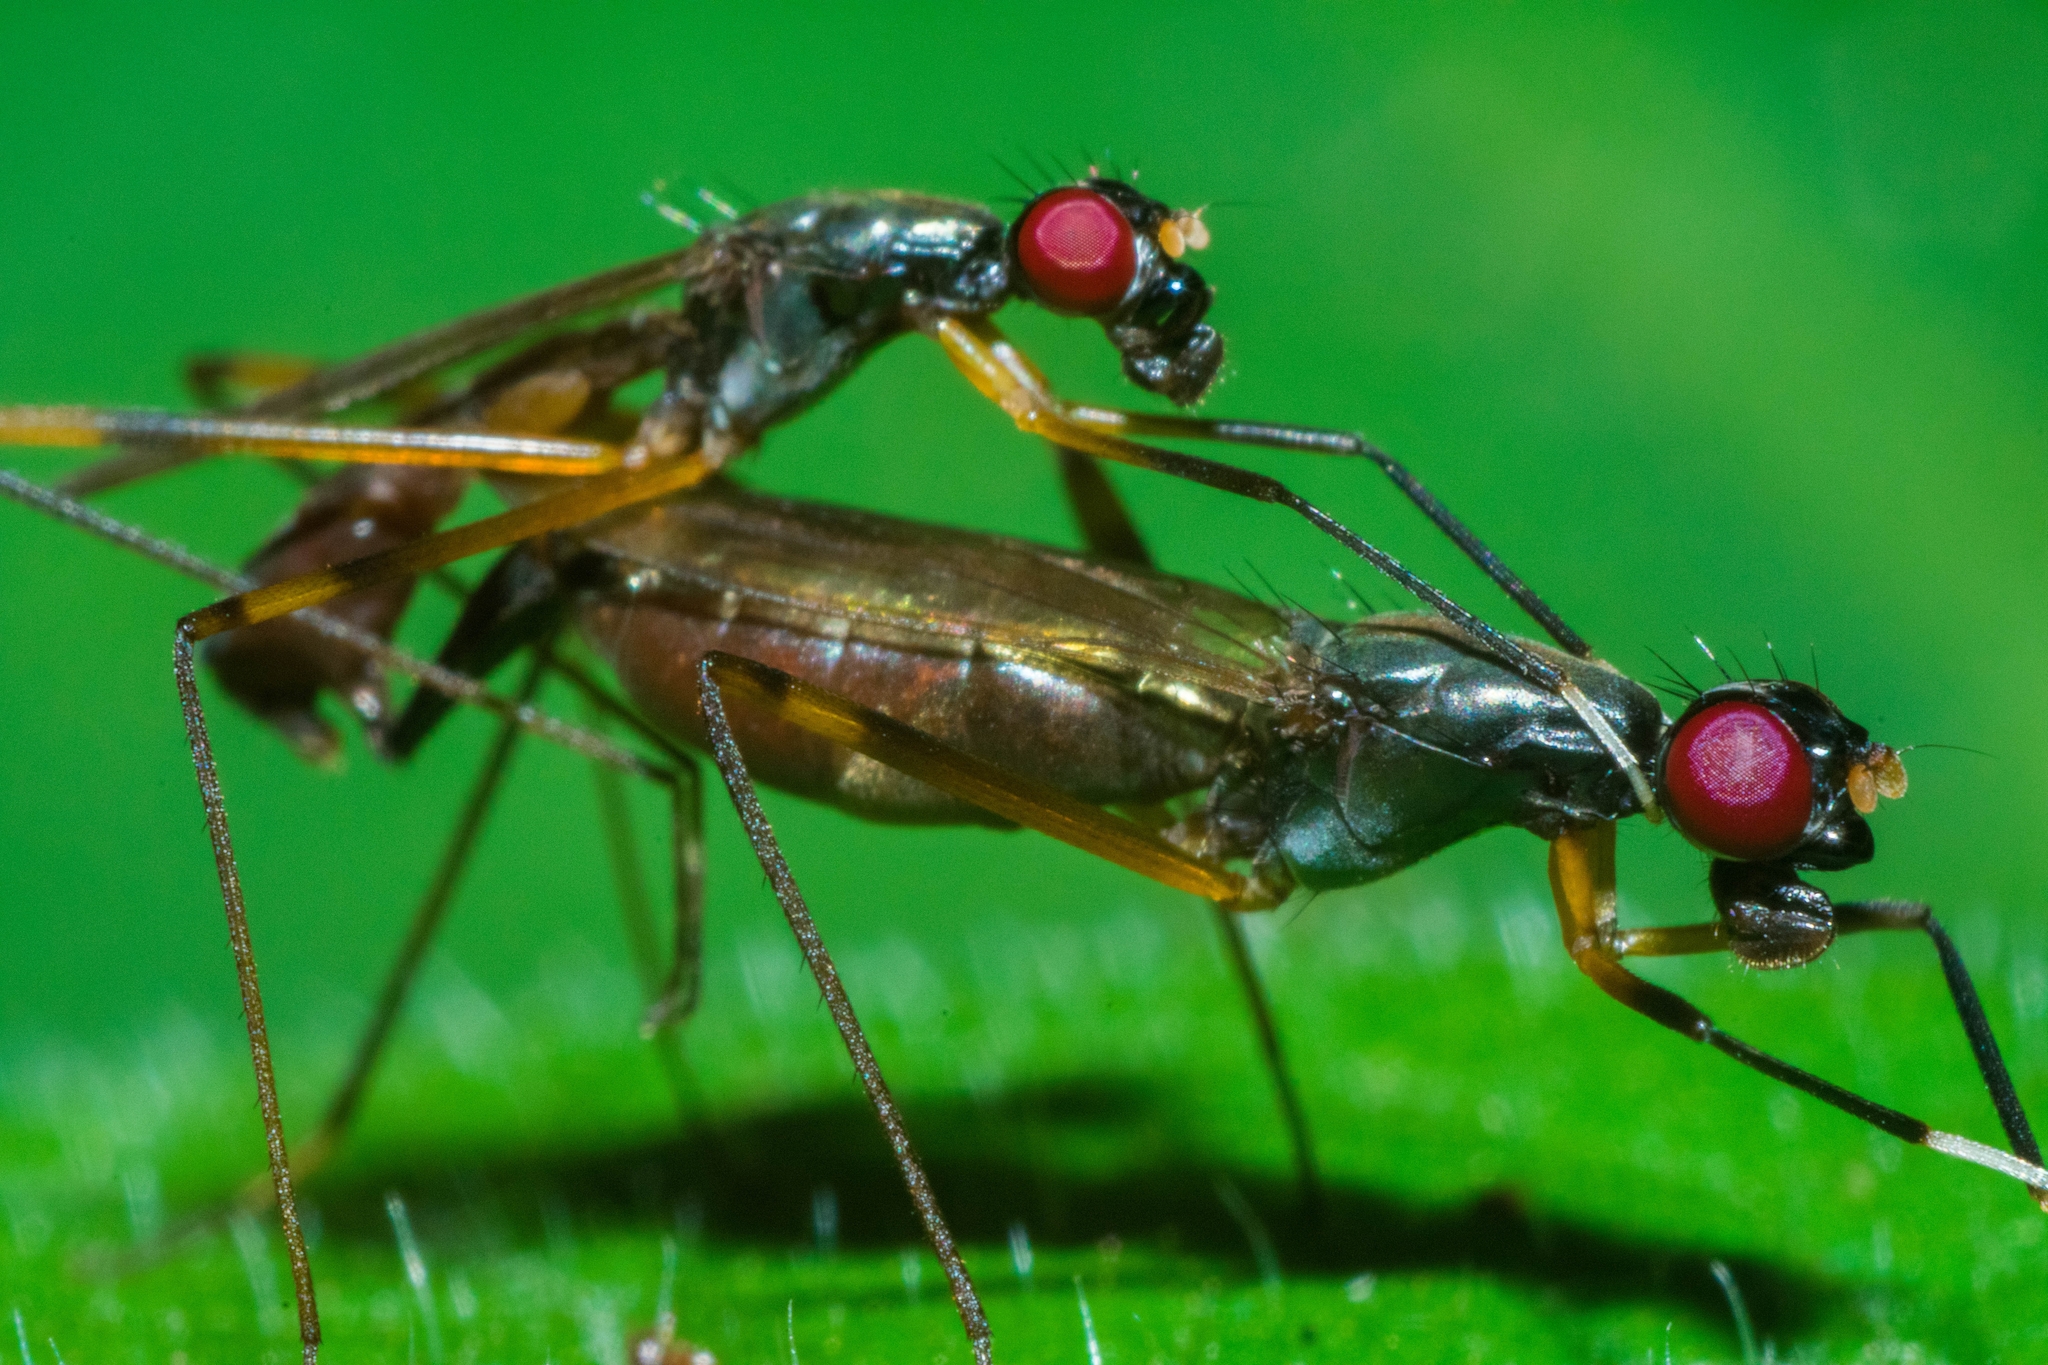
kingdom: Animalia
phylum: Arthropoda
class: Insecta
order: Diptera
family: Micropezidae
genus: Rainieria
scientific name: Rainieria antennaepes
